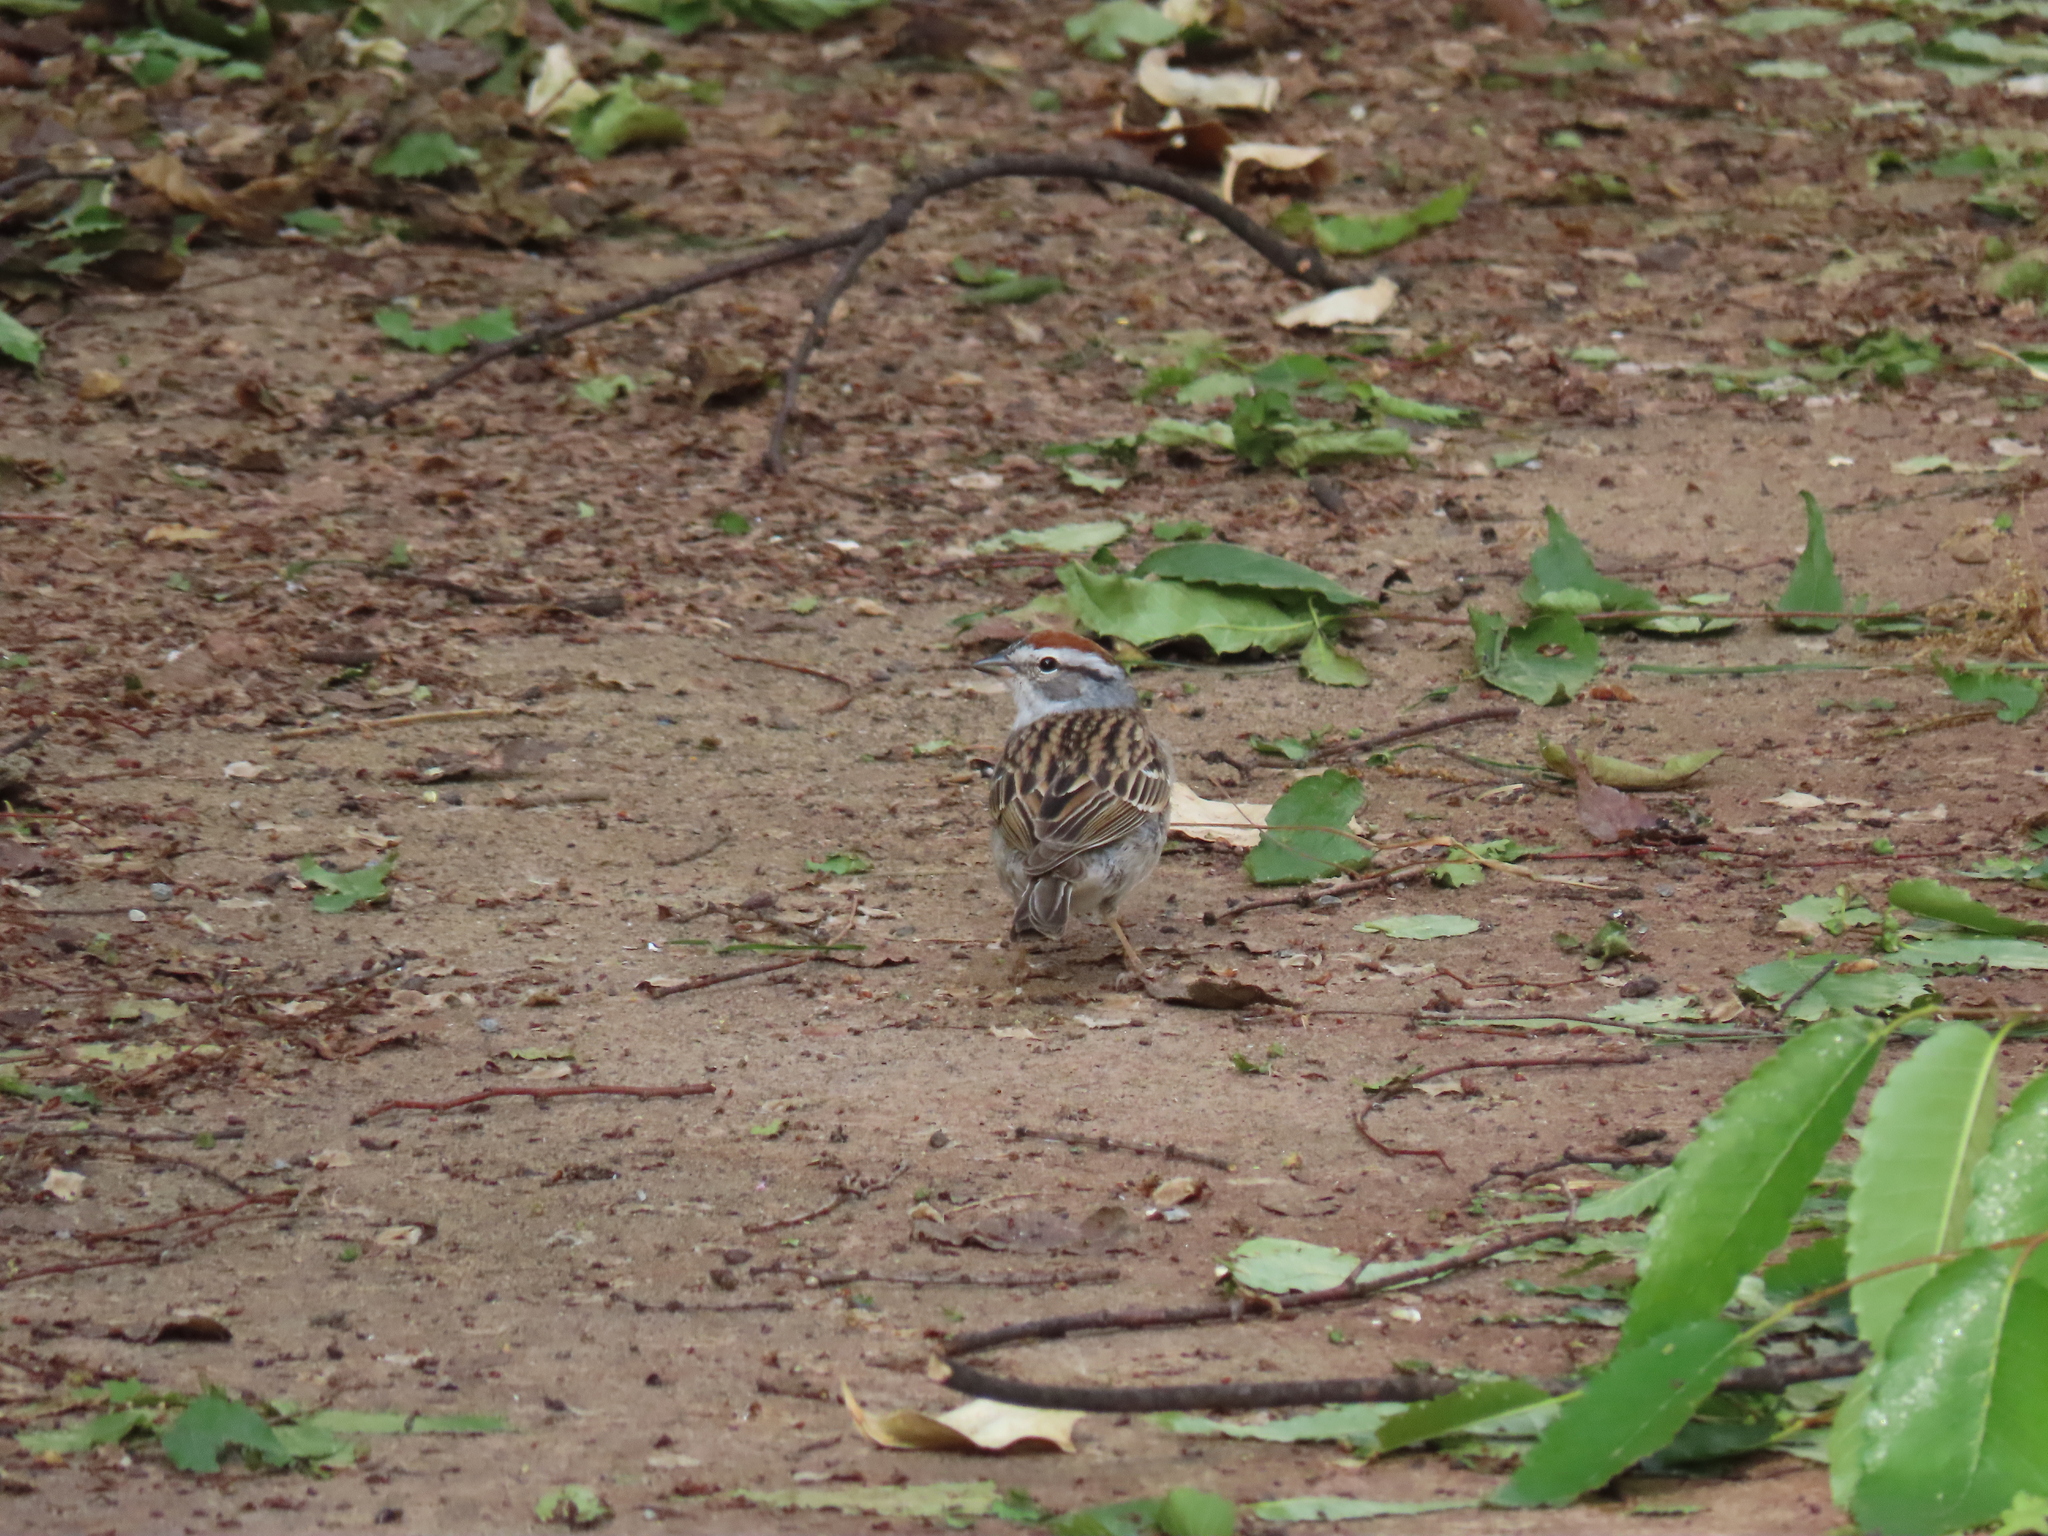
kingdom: Animalia
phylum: Chordata
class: Aves
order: Passeriformes
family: Passerellidae
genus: Spizella
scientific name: Spizella passerina
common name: Chipping sparrow
